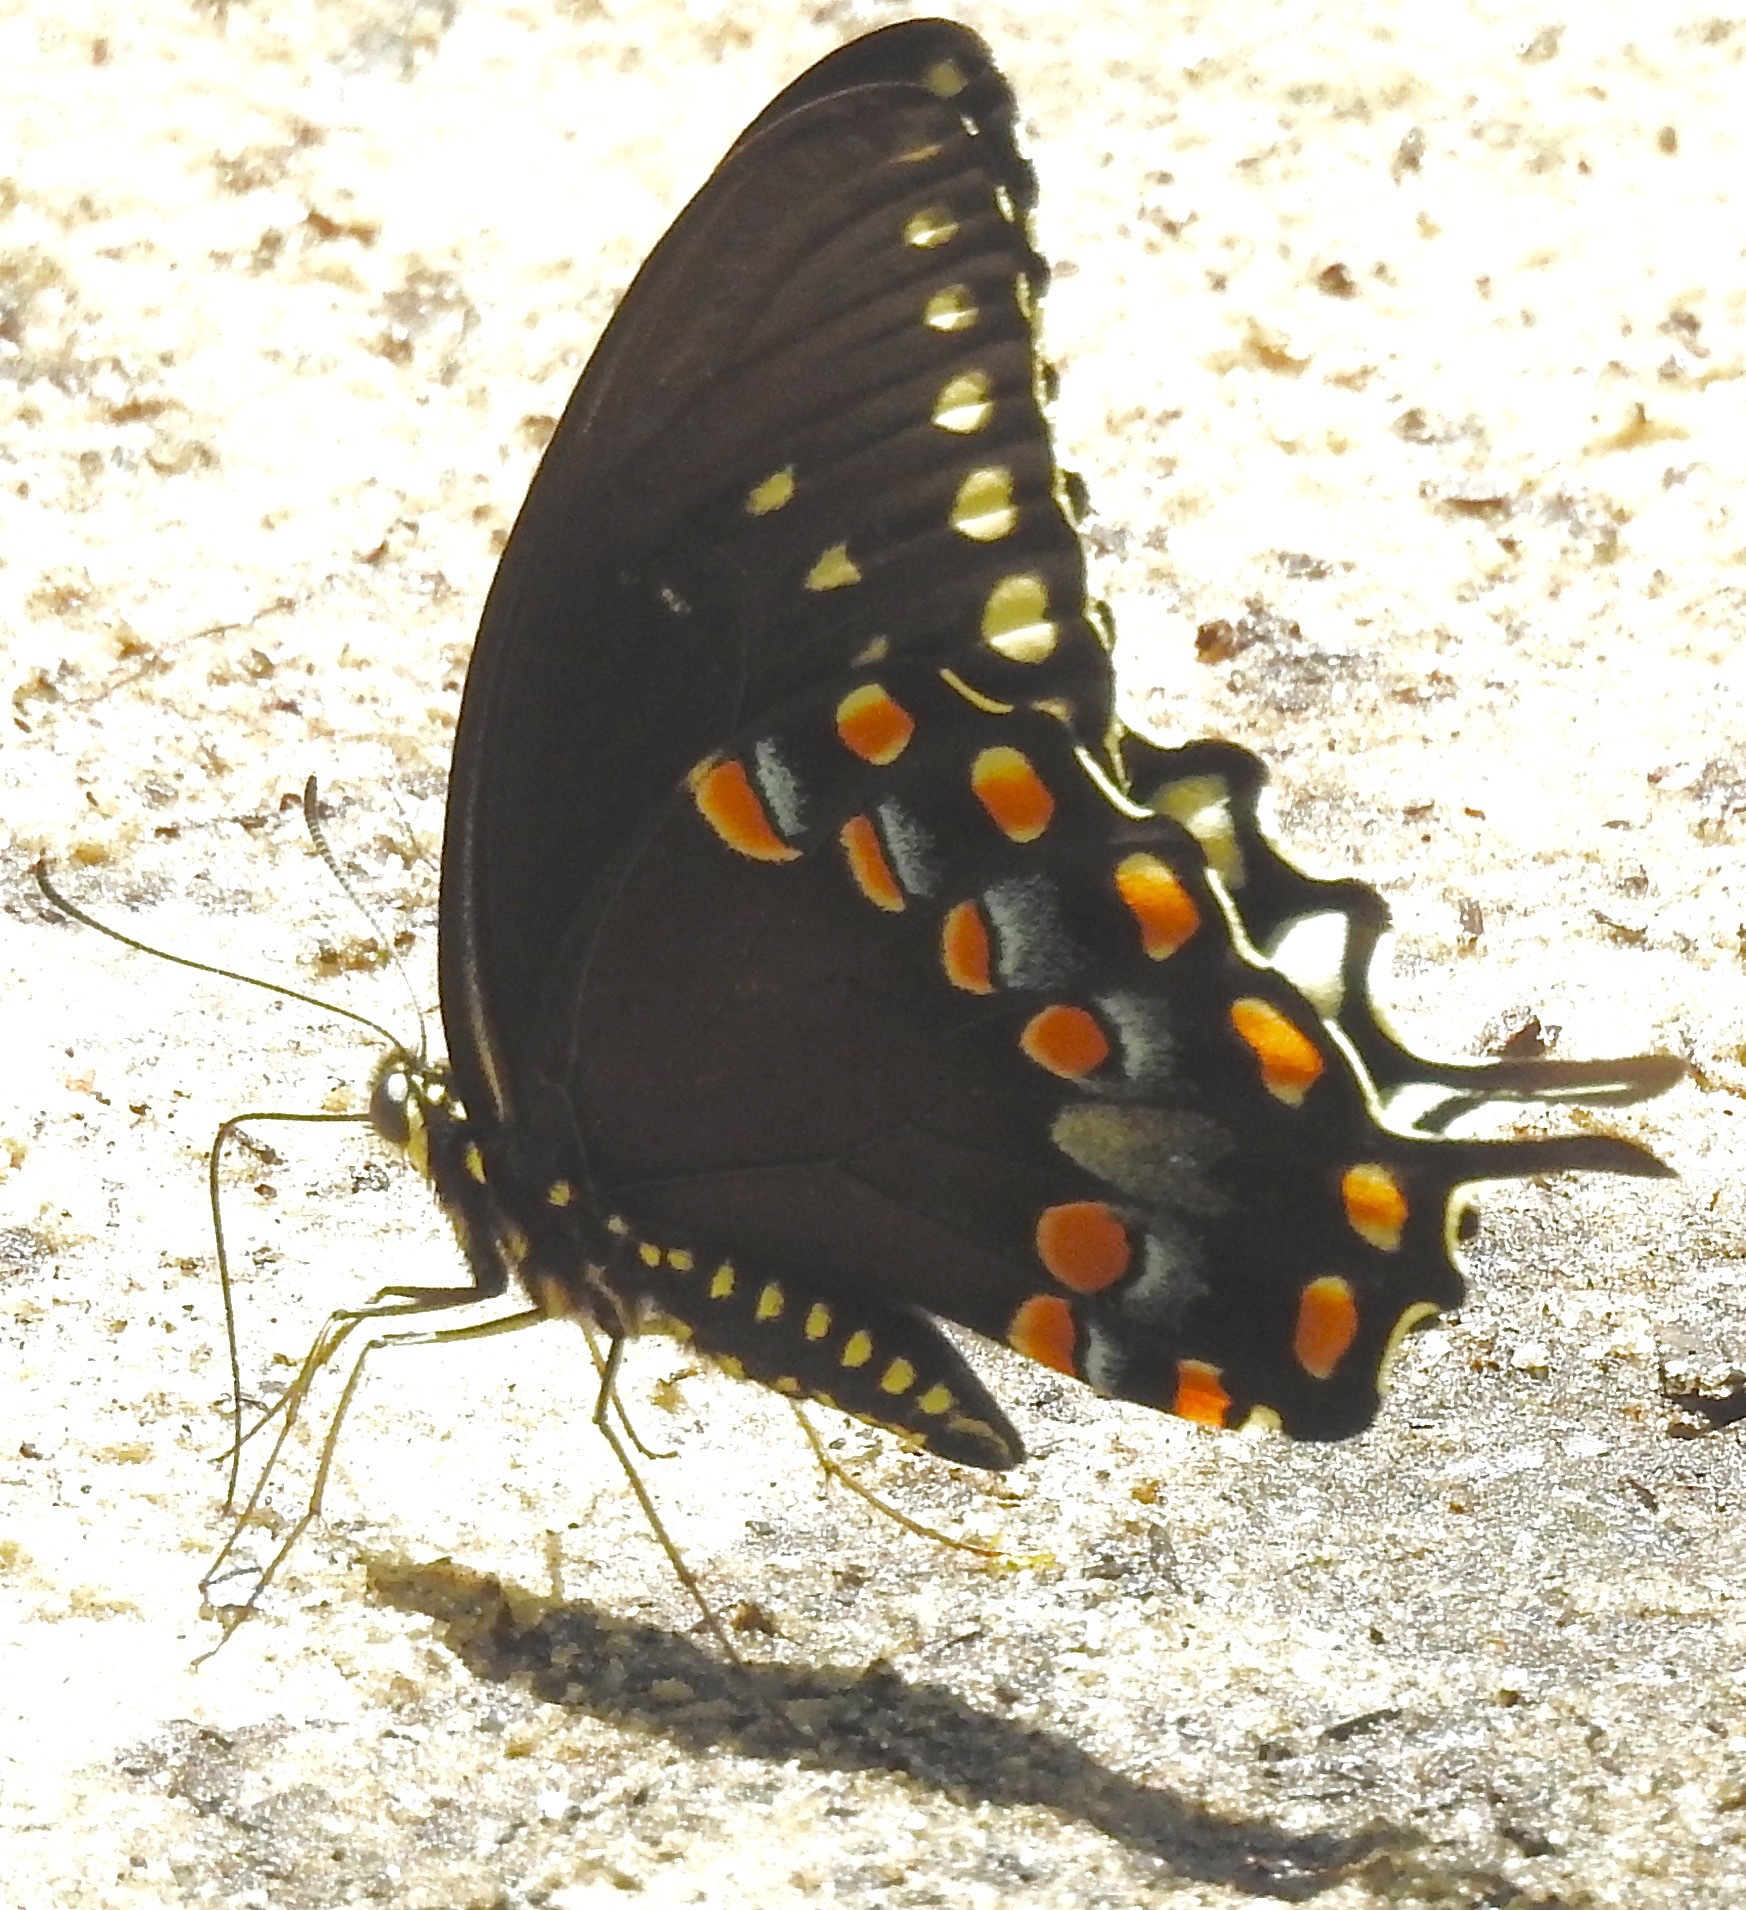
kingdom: Animalia
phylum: Arthropoda
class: Insecta
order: Lepidoptera
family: Papilionidae
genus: Papilio
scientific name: Papilio troilus
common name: Spicebush swallowtail
